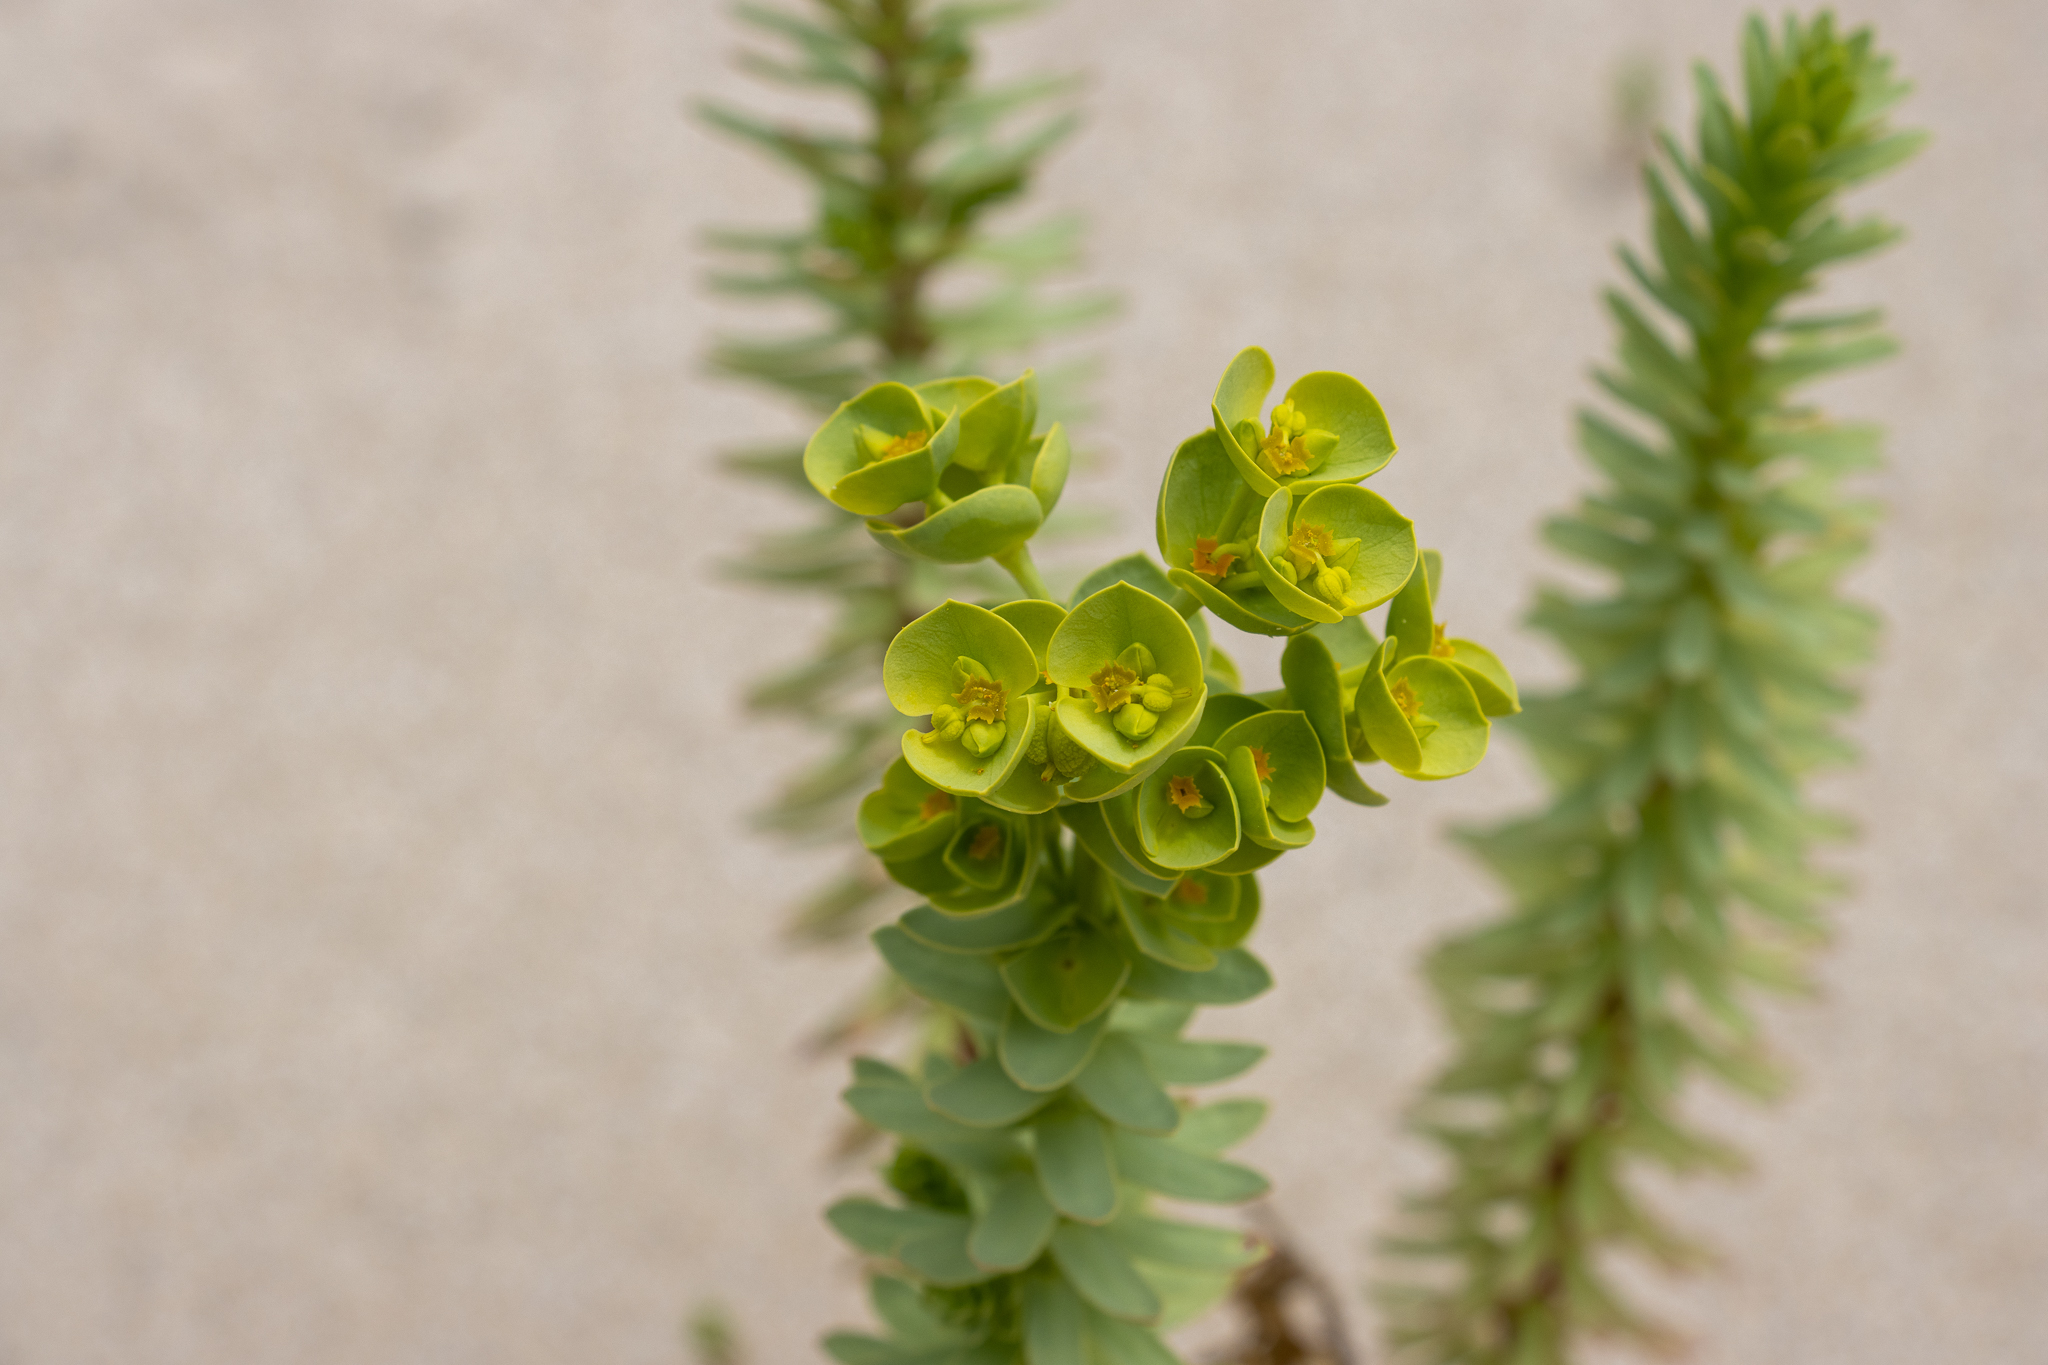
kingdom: Plantae
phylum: Tracheophyta
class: Magnoliopsida
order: Malpighiales
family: Euphorbiaceae
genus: Euphorbia
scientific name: Euphorbia paralias
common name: Sea spurge
